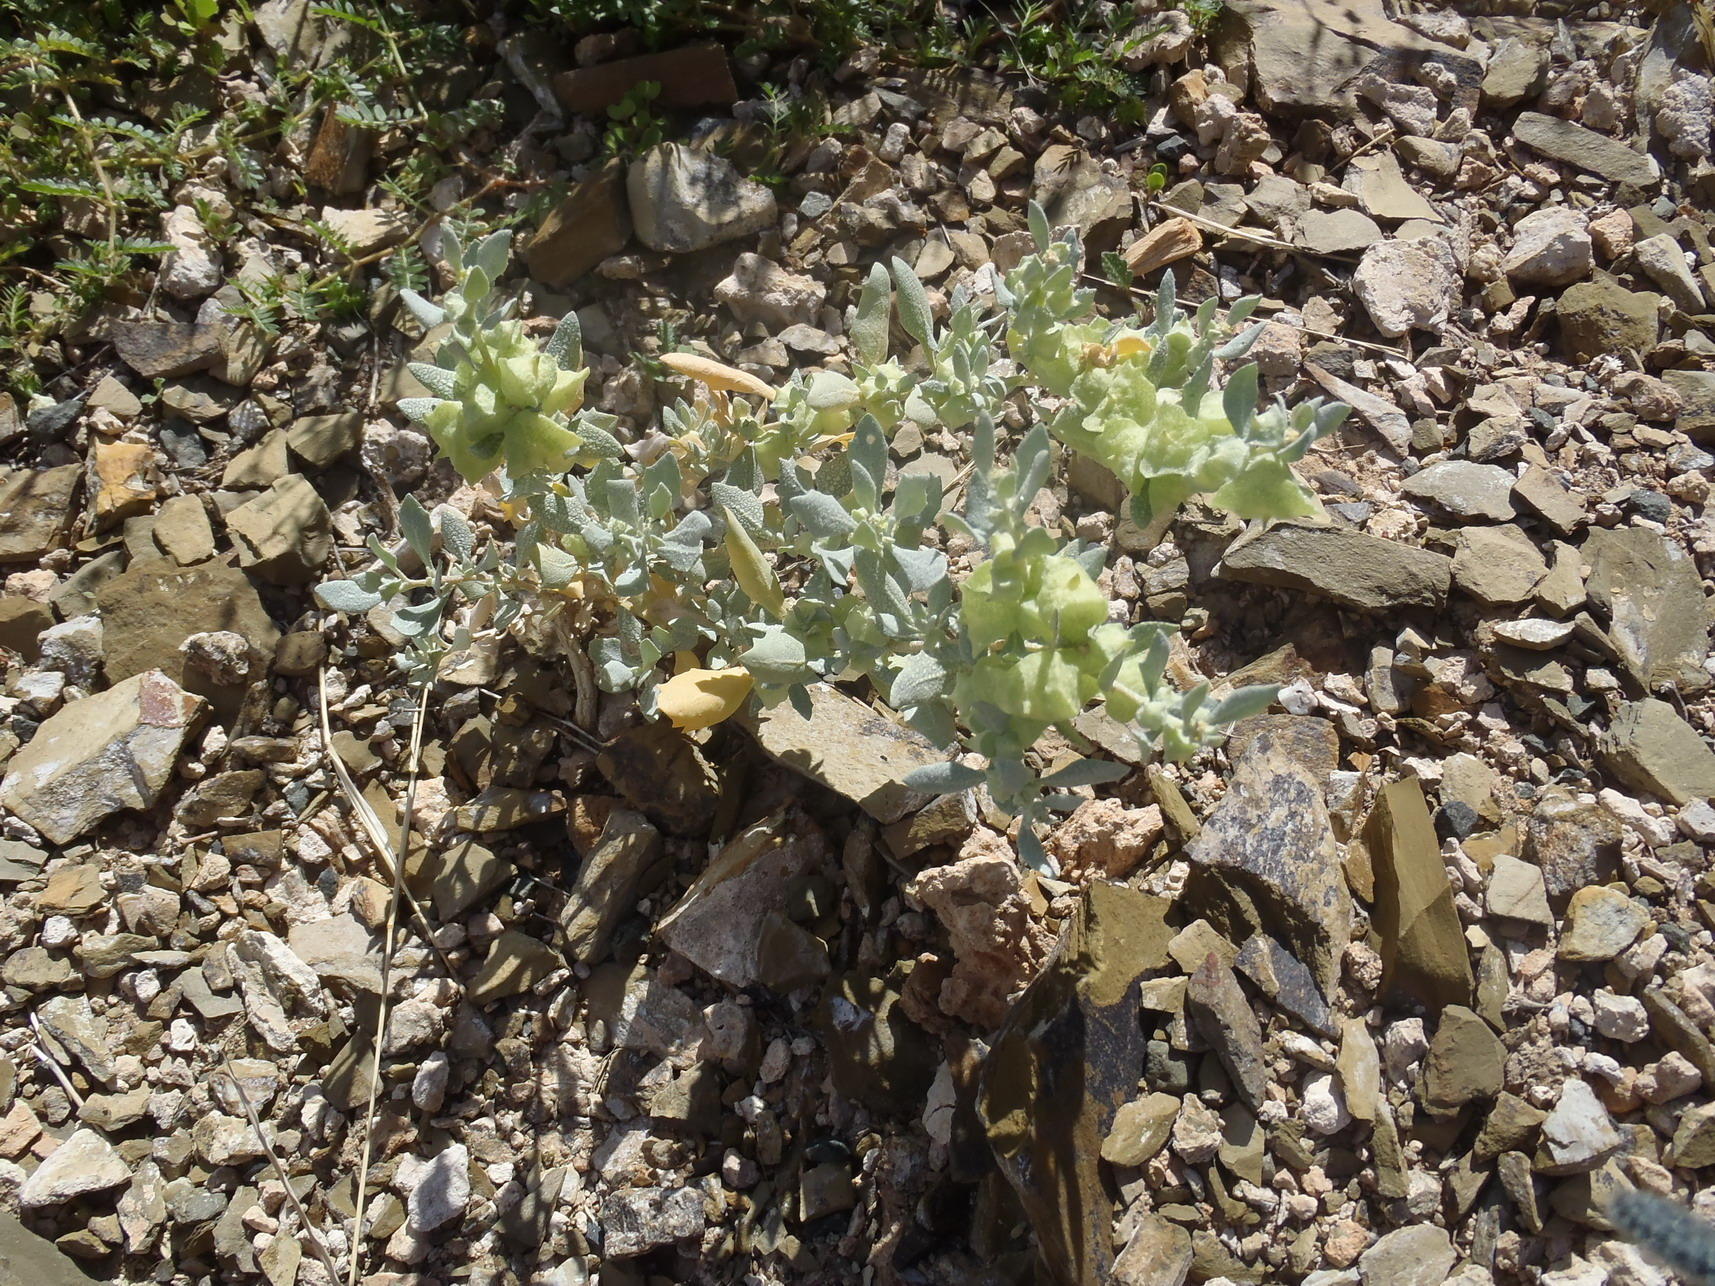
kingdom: Plantae
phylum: Tracheophyta
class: Magnoliopsida
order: Caryophyllales
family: Amaranthaceae
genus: Atriplex
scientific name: Atriplex lindleyi
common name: Lindley's saltbush
